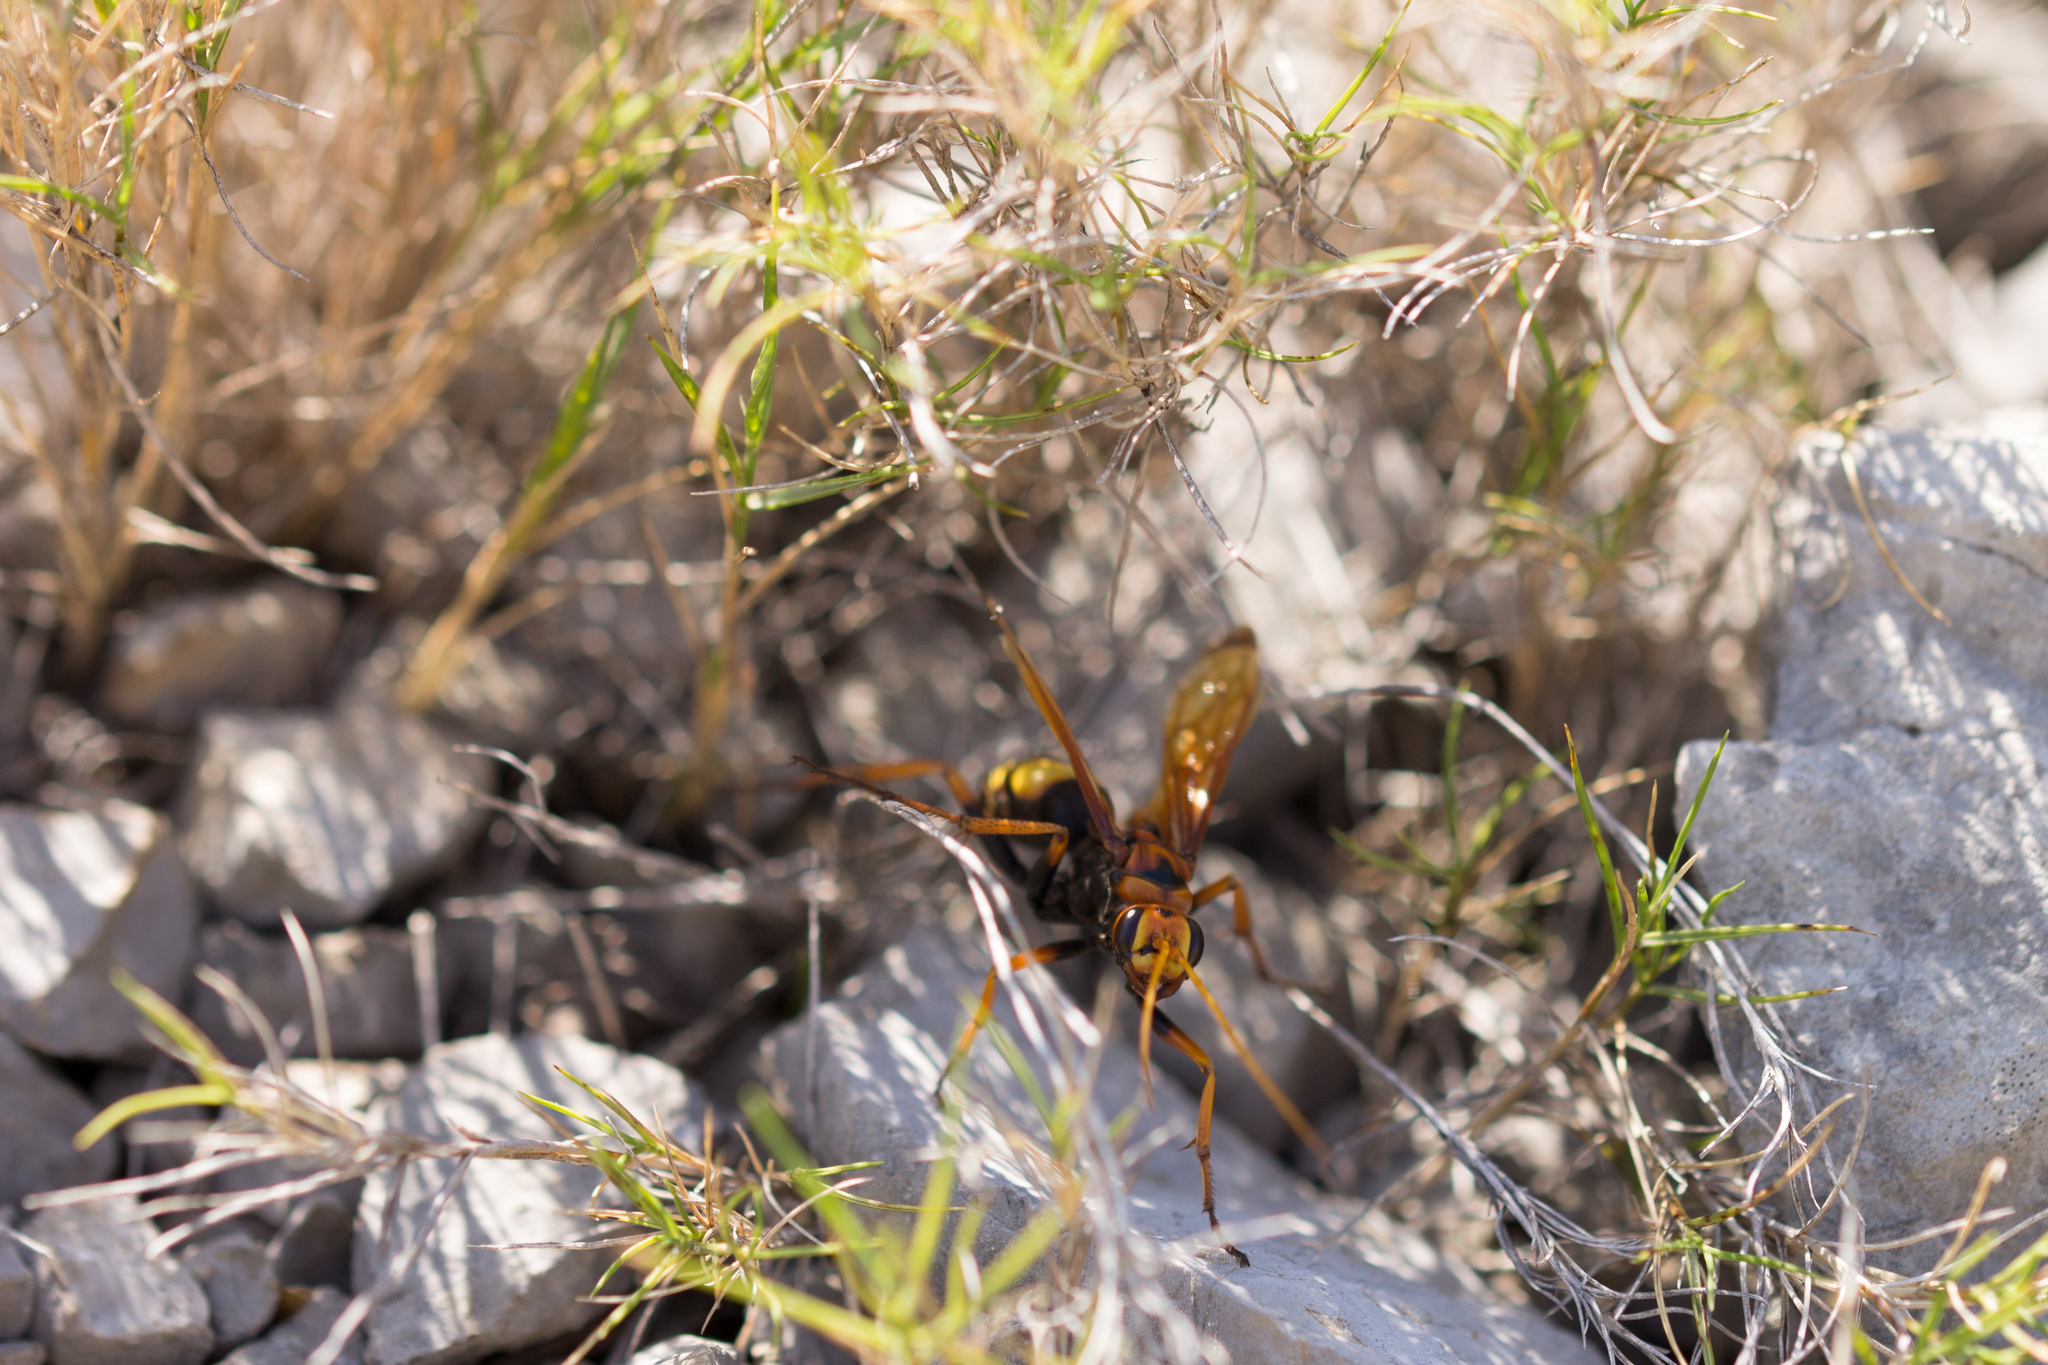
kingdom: Animalia
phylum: Arthropoda
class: Insecta
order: Hymenoptera
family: Pompilidae
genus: Cryptocheilus
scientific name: Cryptocheilus alternatus
